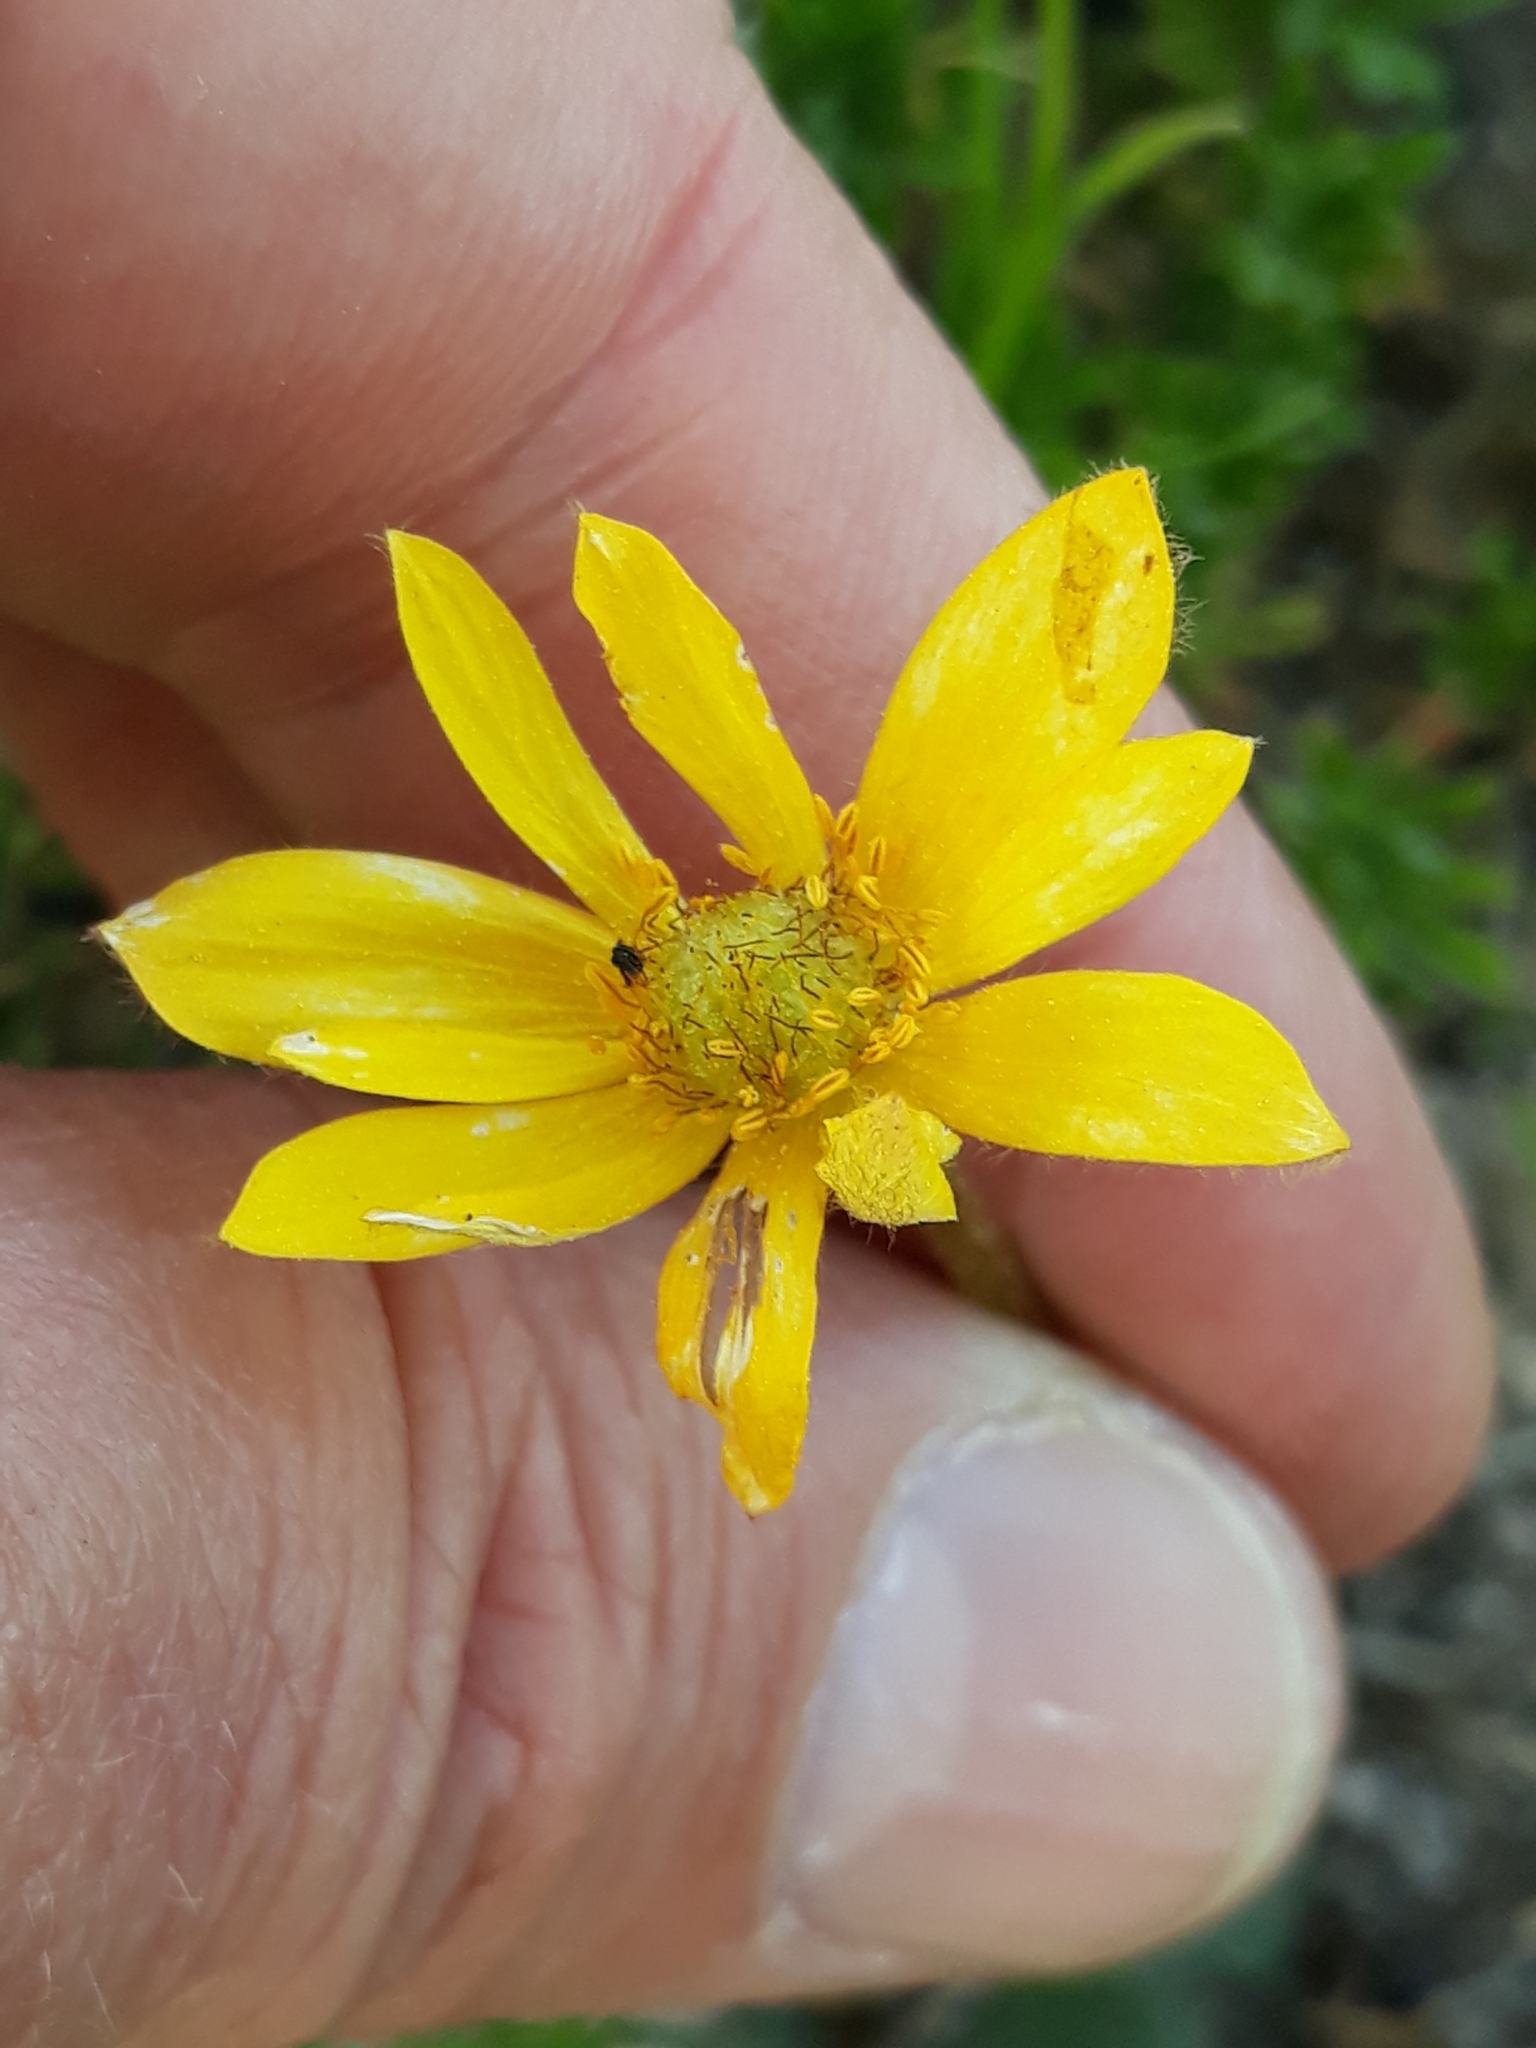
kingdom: Plantae
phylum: Tracheophyta
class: Magnoliopsida
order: Ranunculales
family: Ranunculaceae
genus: Anemone
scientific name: Anemone palmata
